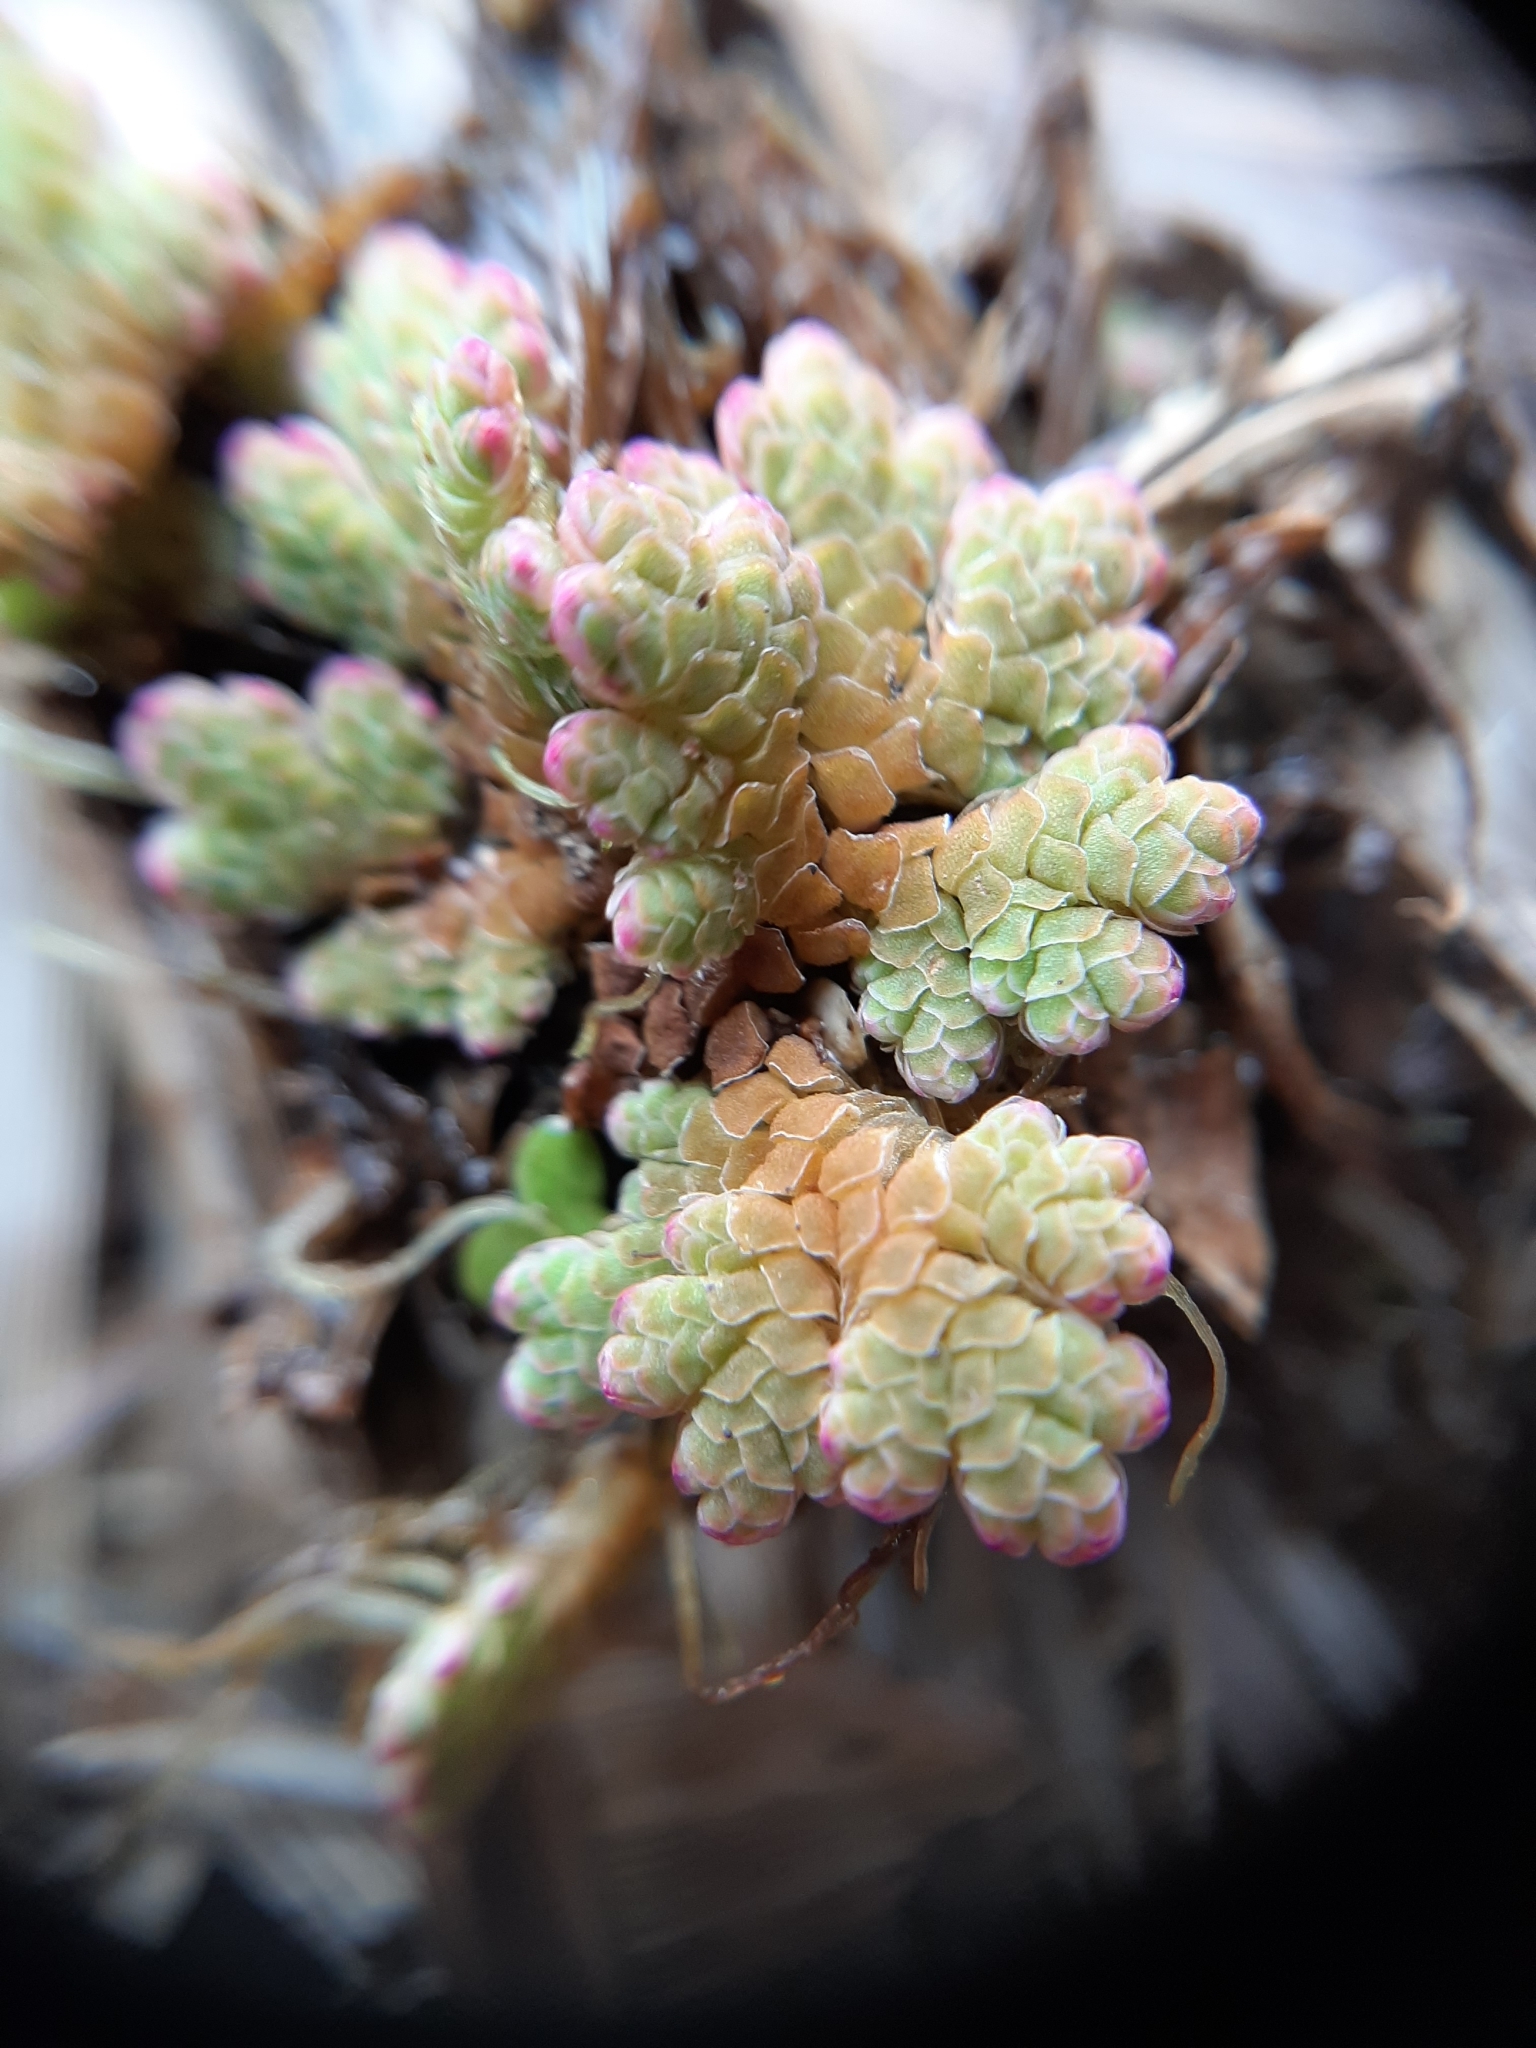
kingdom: Plantae
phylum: Tracheophyta
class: Polypodiopsida
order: Salviniales
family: Salviniaceae
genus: Azolla
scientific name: Azolla rubra
